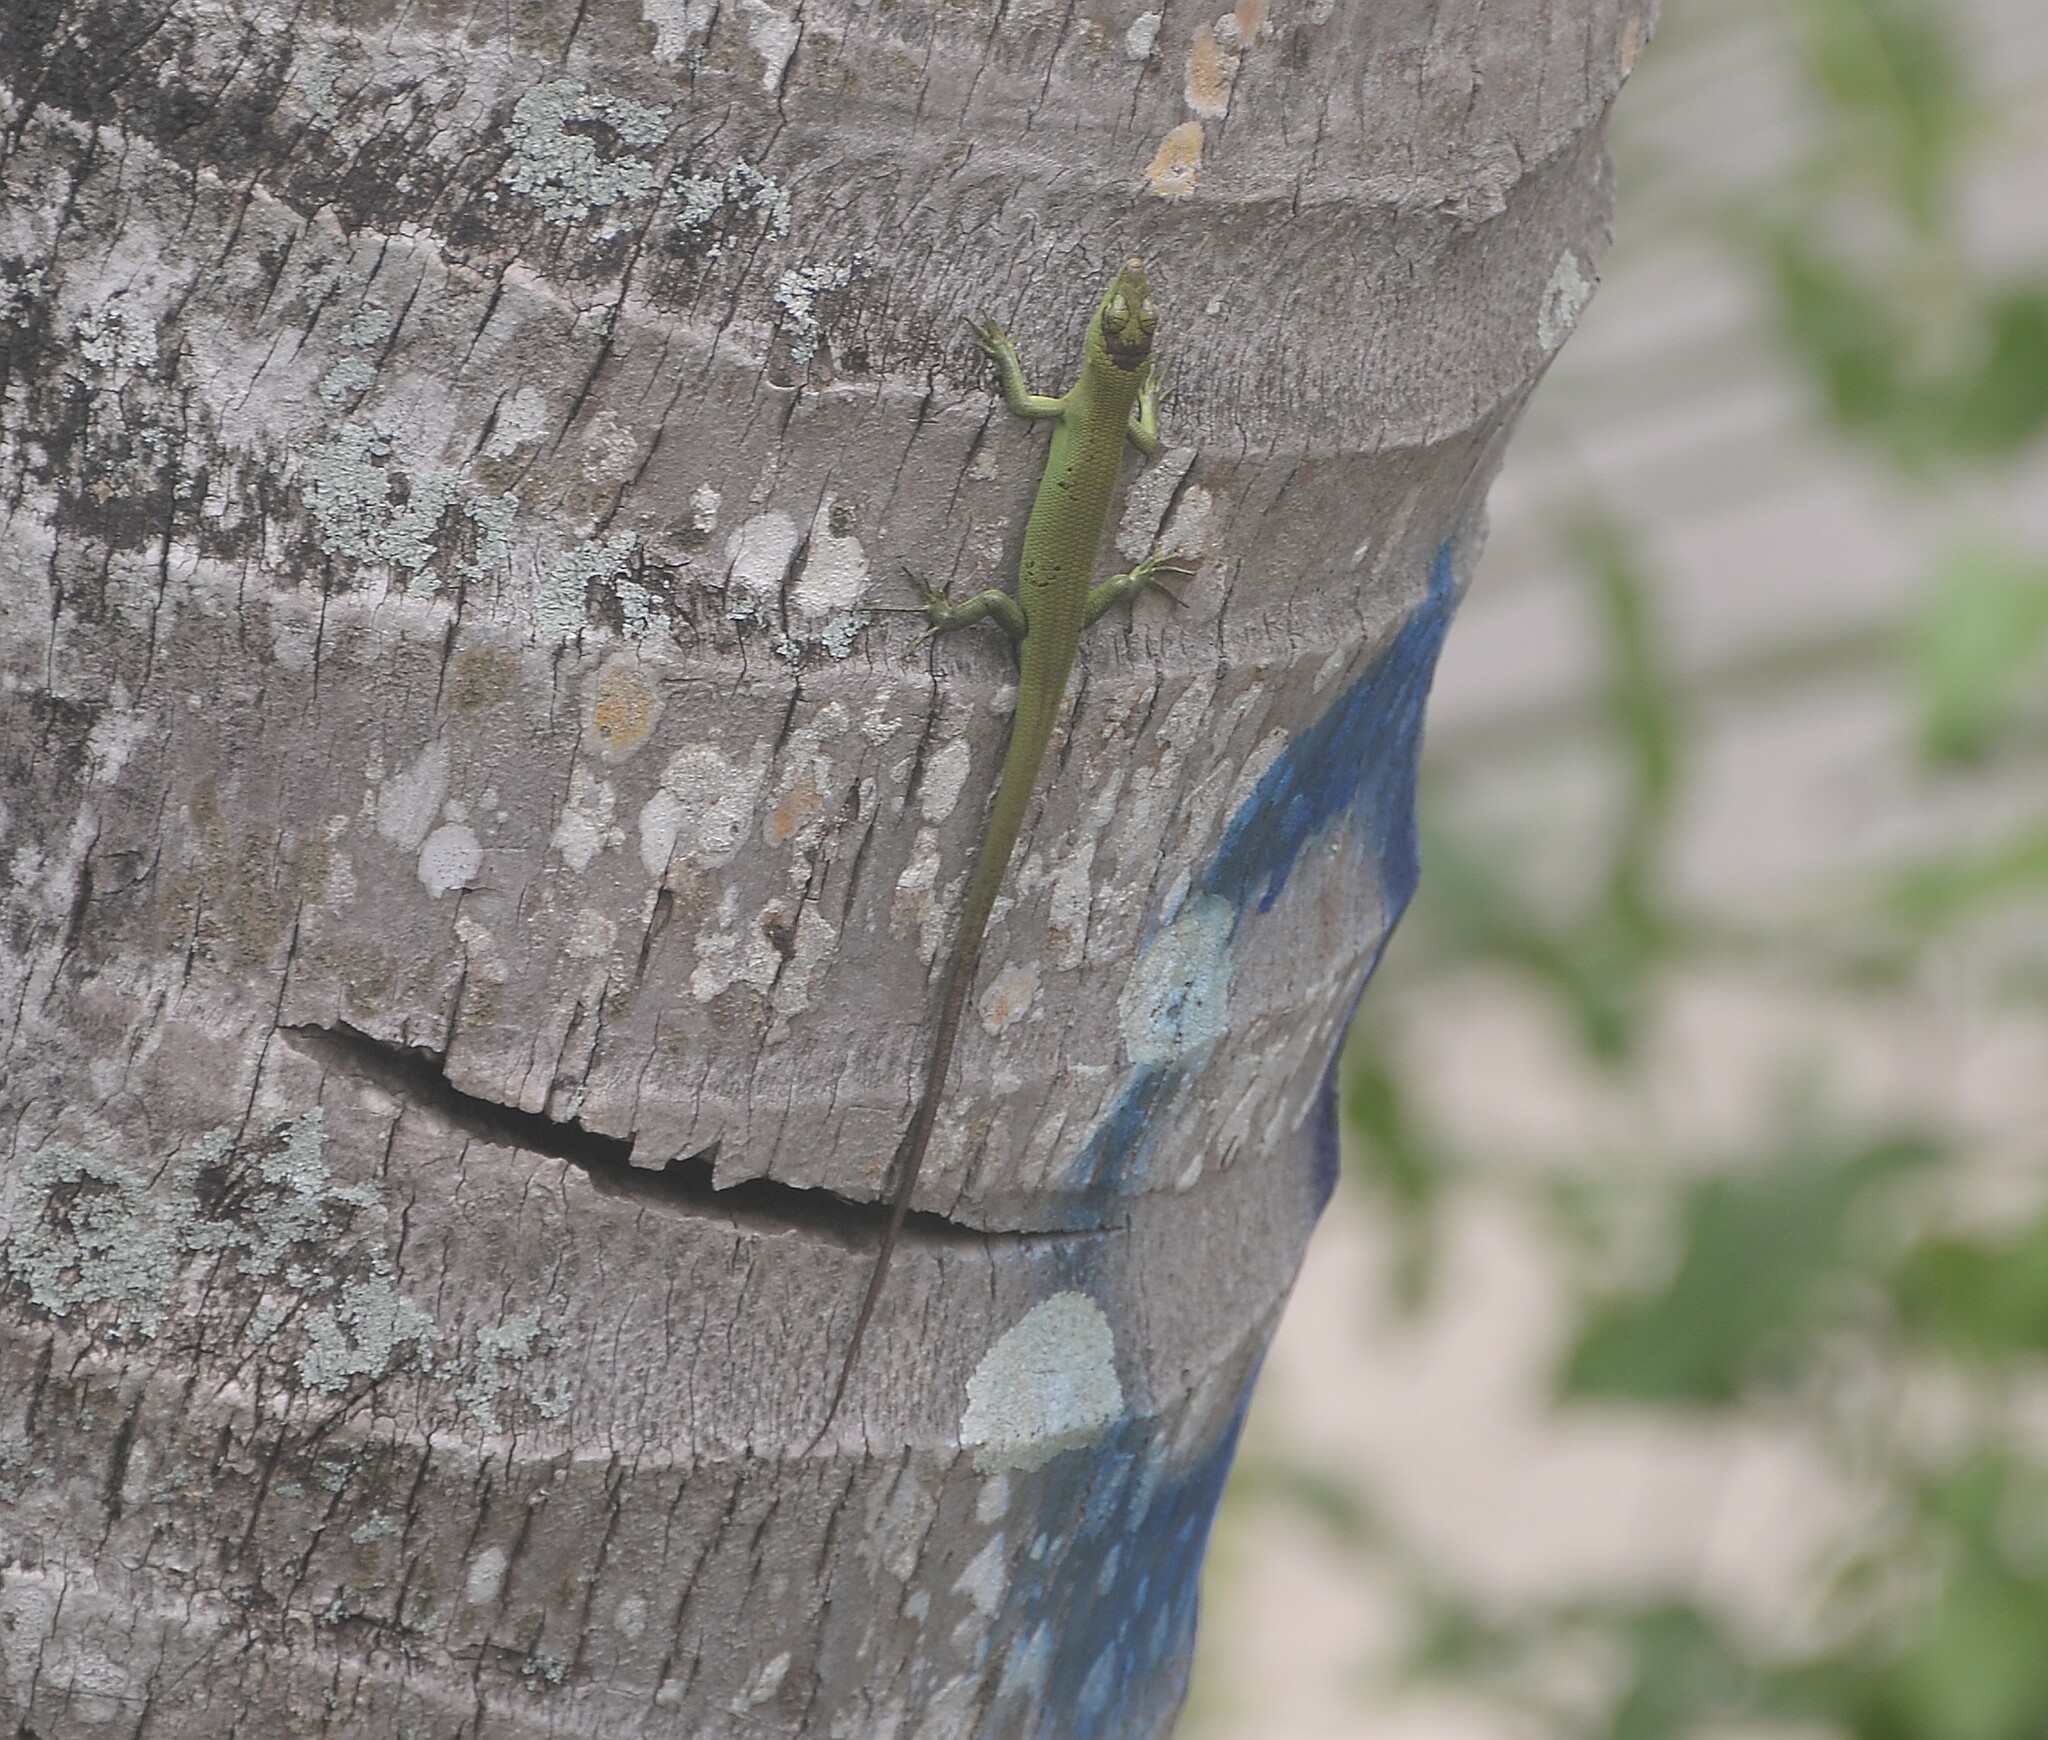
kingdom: Animalia
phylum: Chordata
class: Squamata
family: Scincidae
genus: Emoia
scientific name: Emoia sanfordi
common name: Sanford's tree skink
